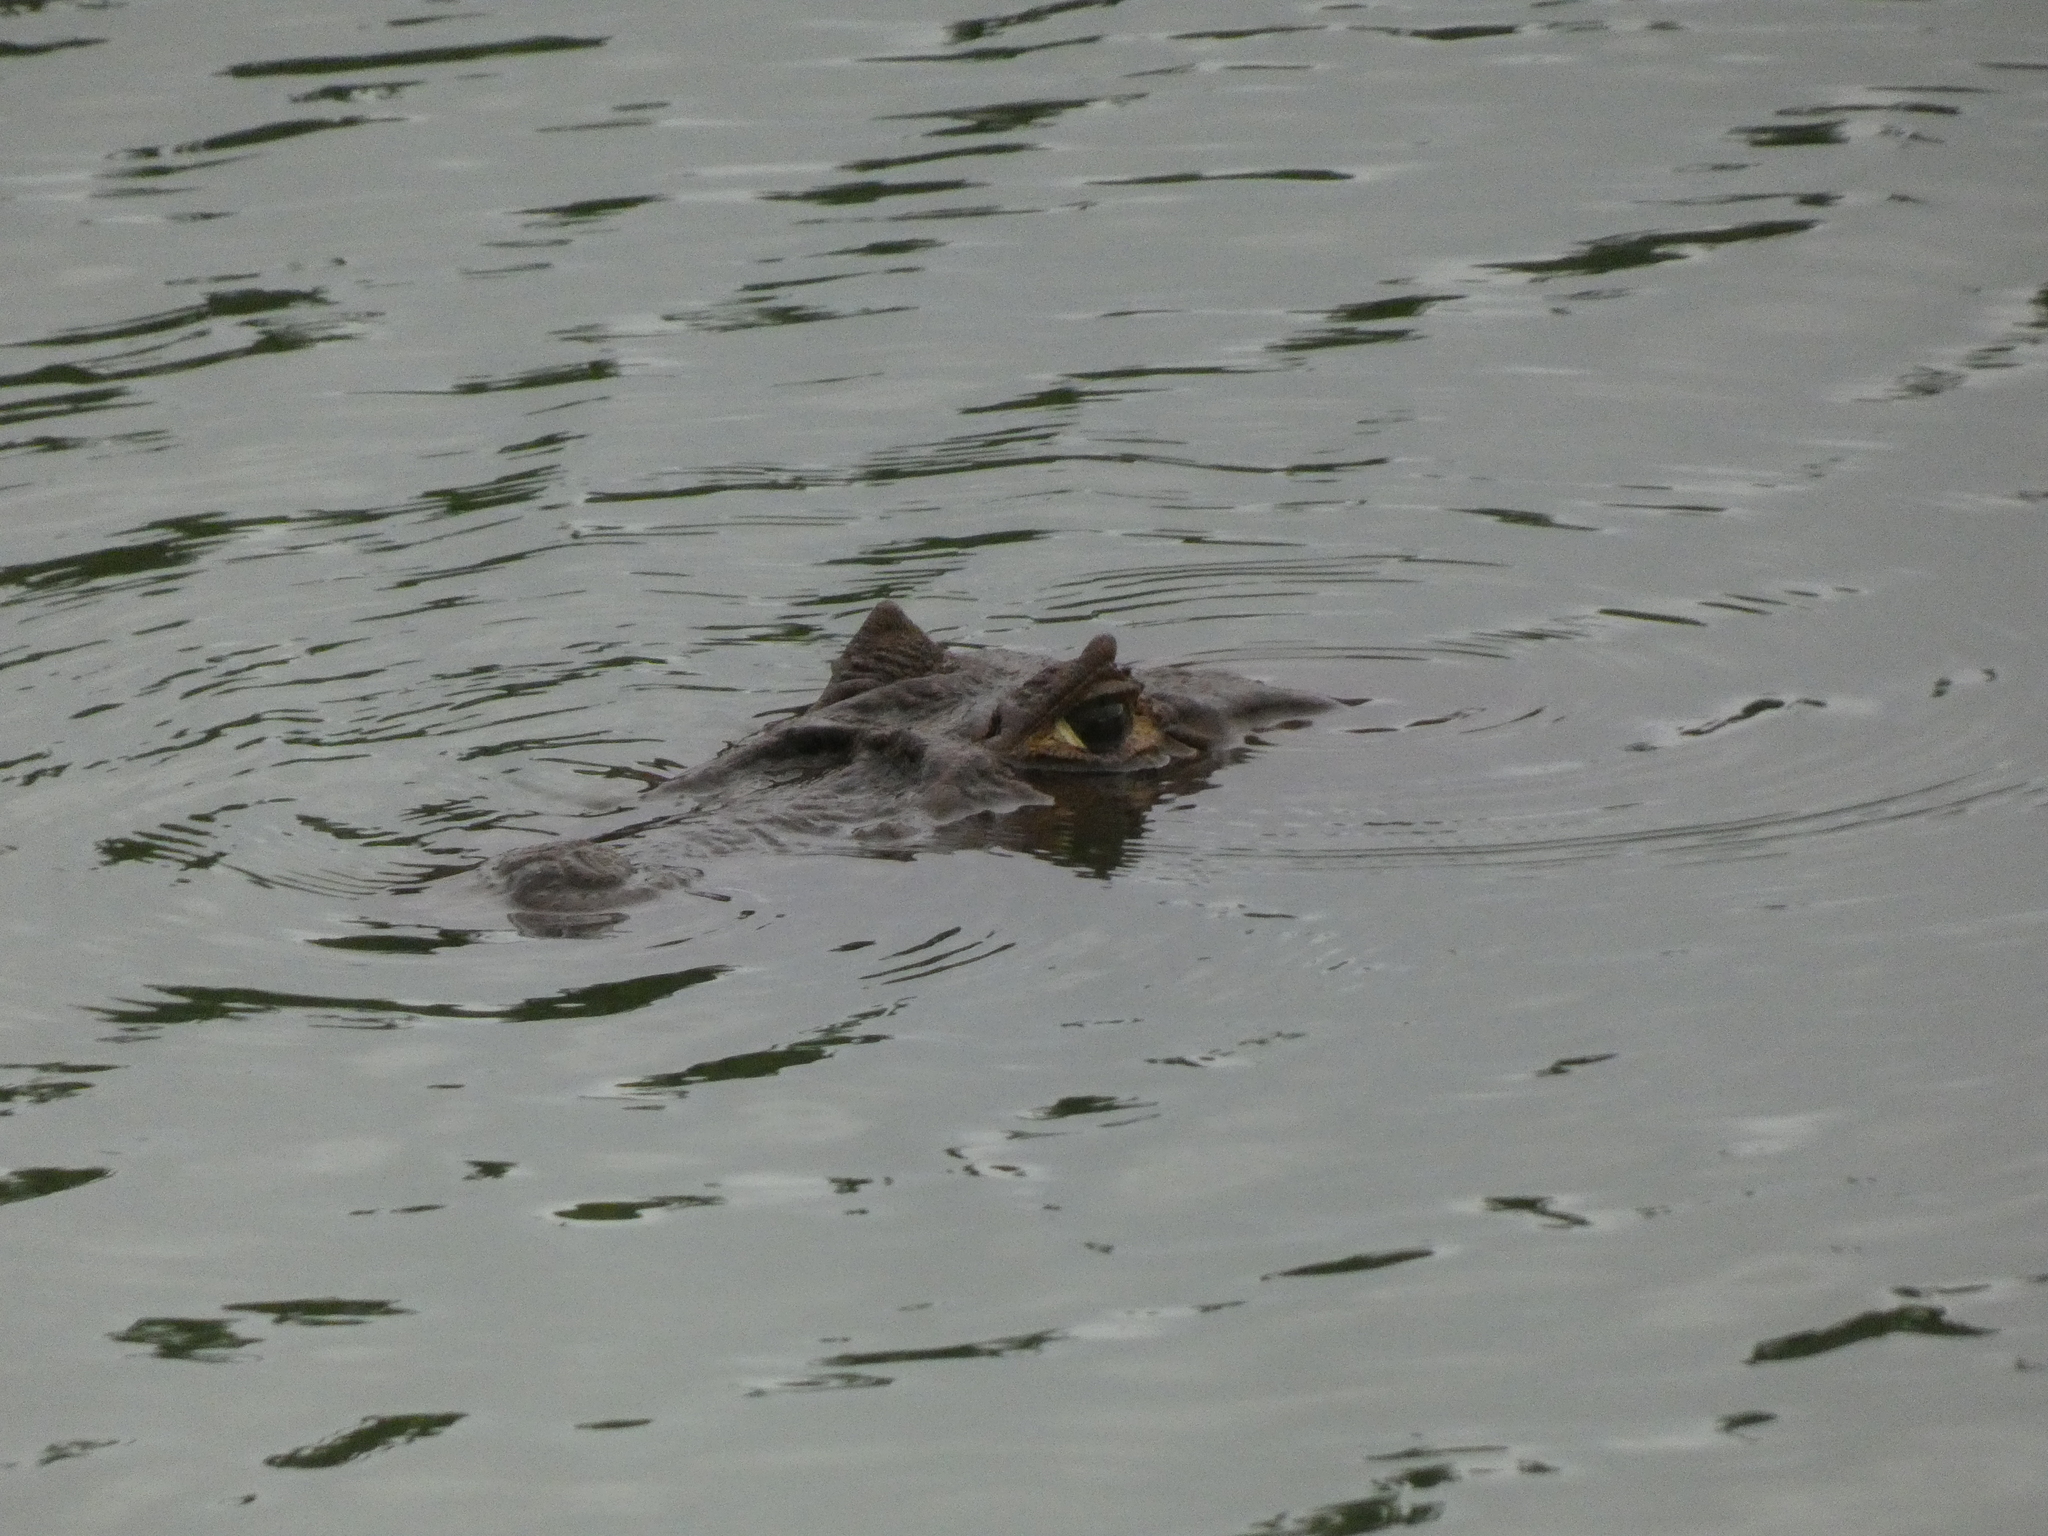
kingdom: Animalia
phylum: Chordata
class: Crocodylia
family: Alligatoridae
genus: Caiman
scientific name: Caiman latirostris
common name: Broad-snouted caiman
